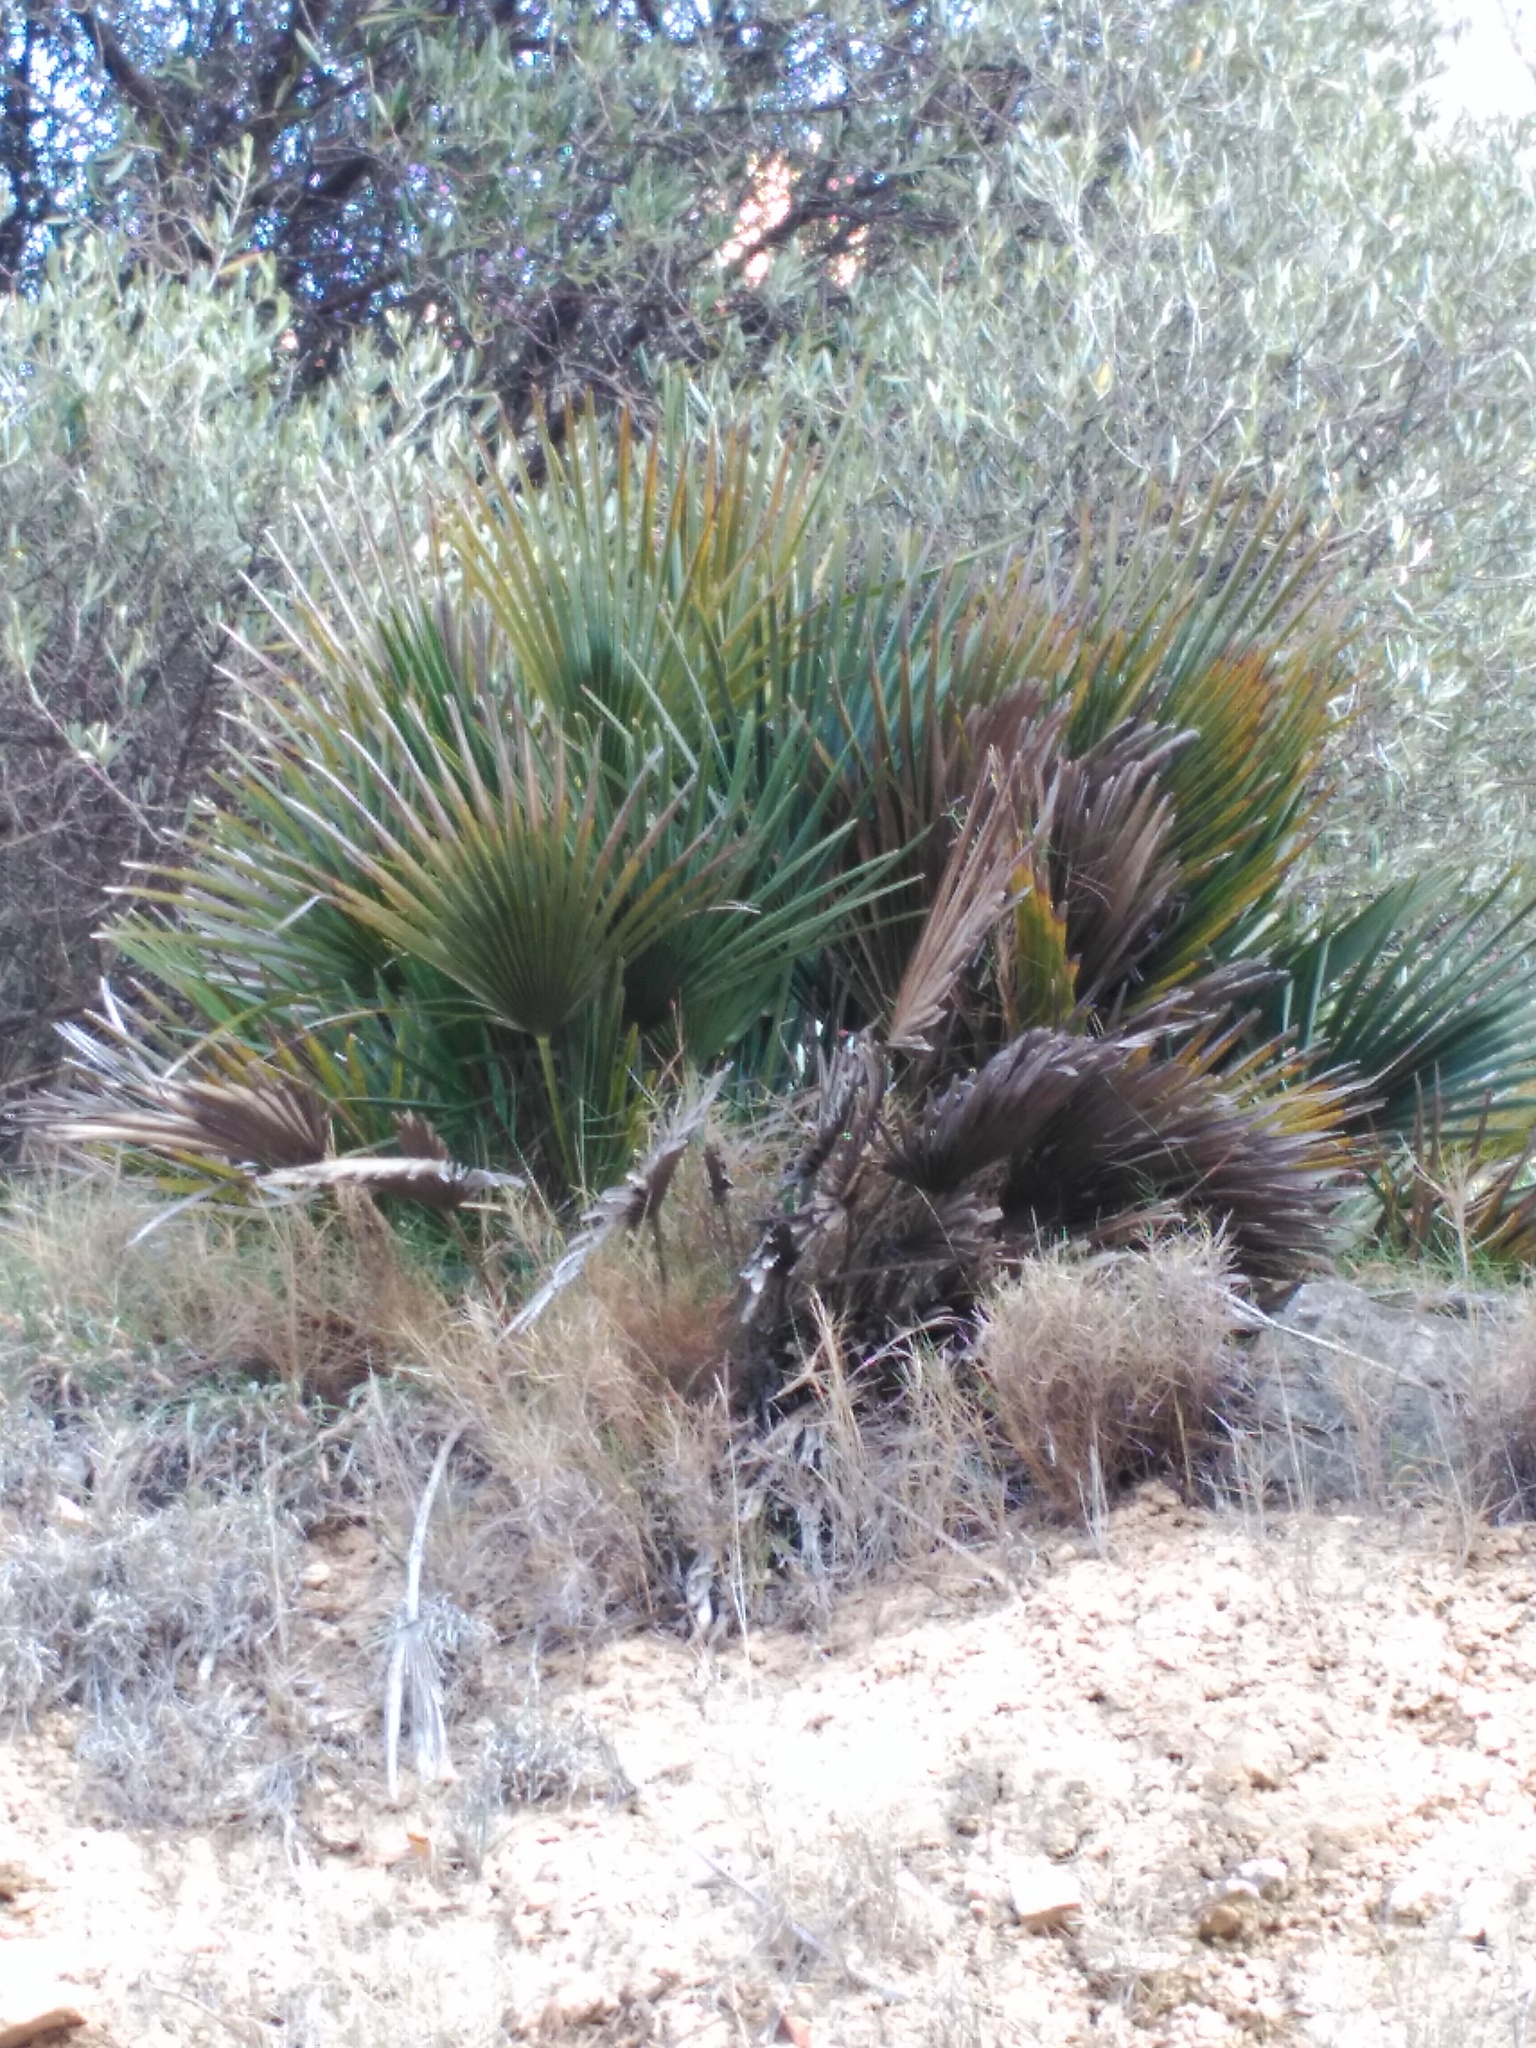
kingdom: Plantae
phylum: Tracheophyta
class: Liliopsida
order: Arecales
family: Arecaceae
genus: Chamaerops
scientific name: Chamaerops humilis
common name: Dwarf fan palm
